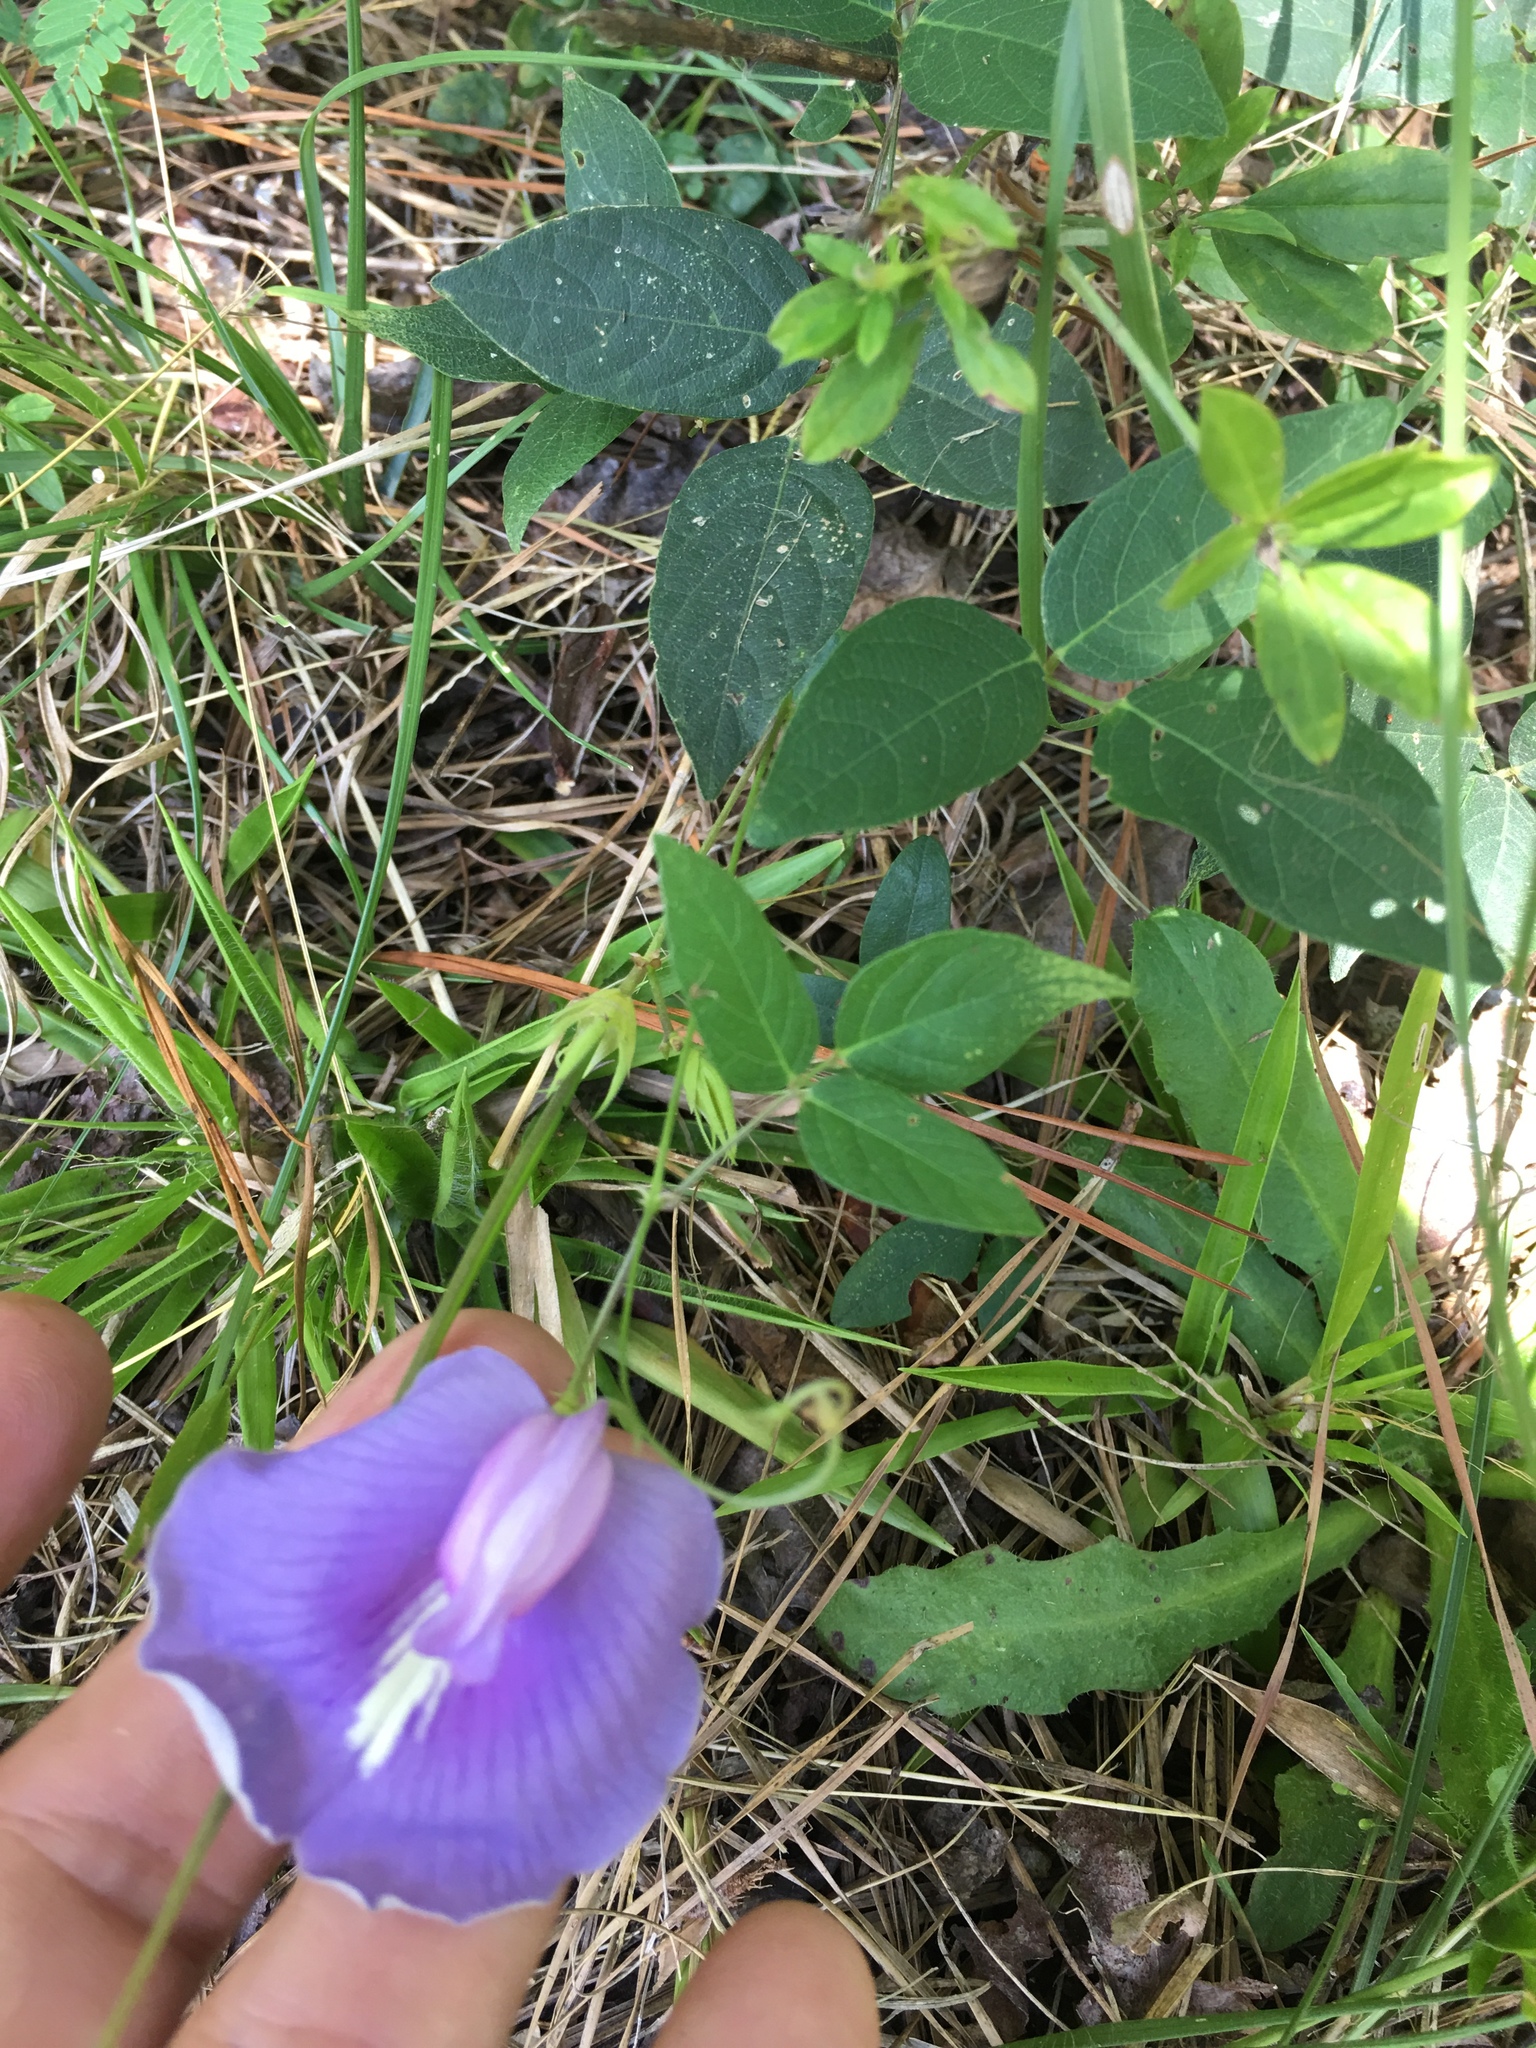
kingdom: Plantae
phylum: Tracheophyta
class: Magnoliopsida
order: Fabales
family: Fabaceae
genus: Centrosema
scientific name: Centrosema virginianum
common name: Butterfly-pea
